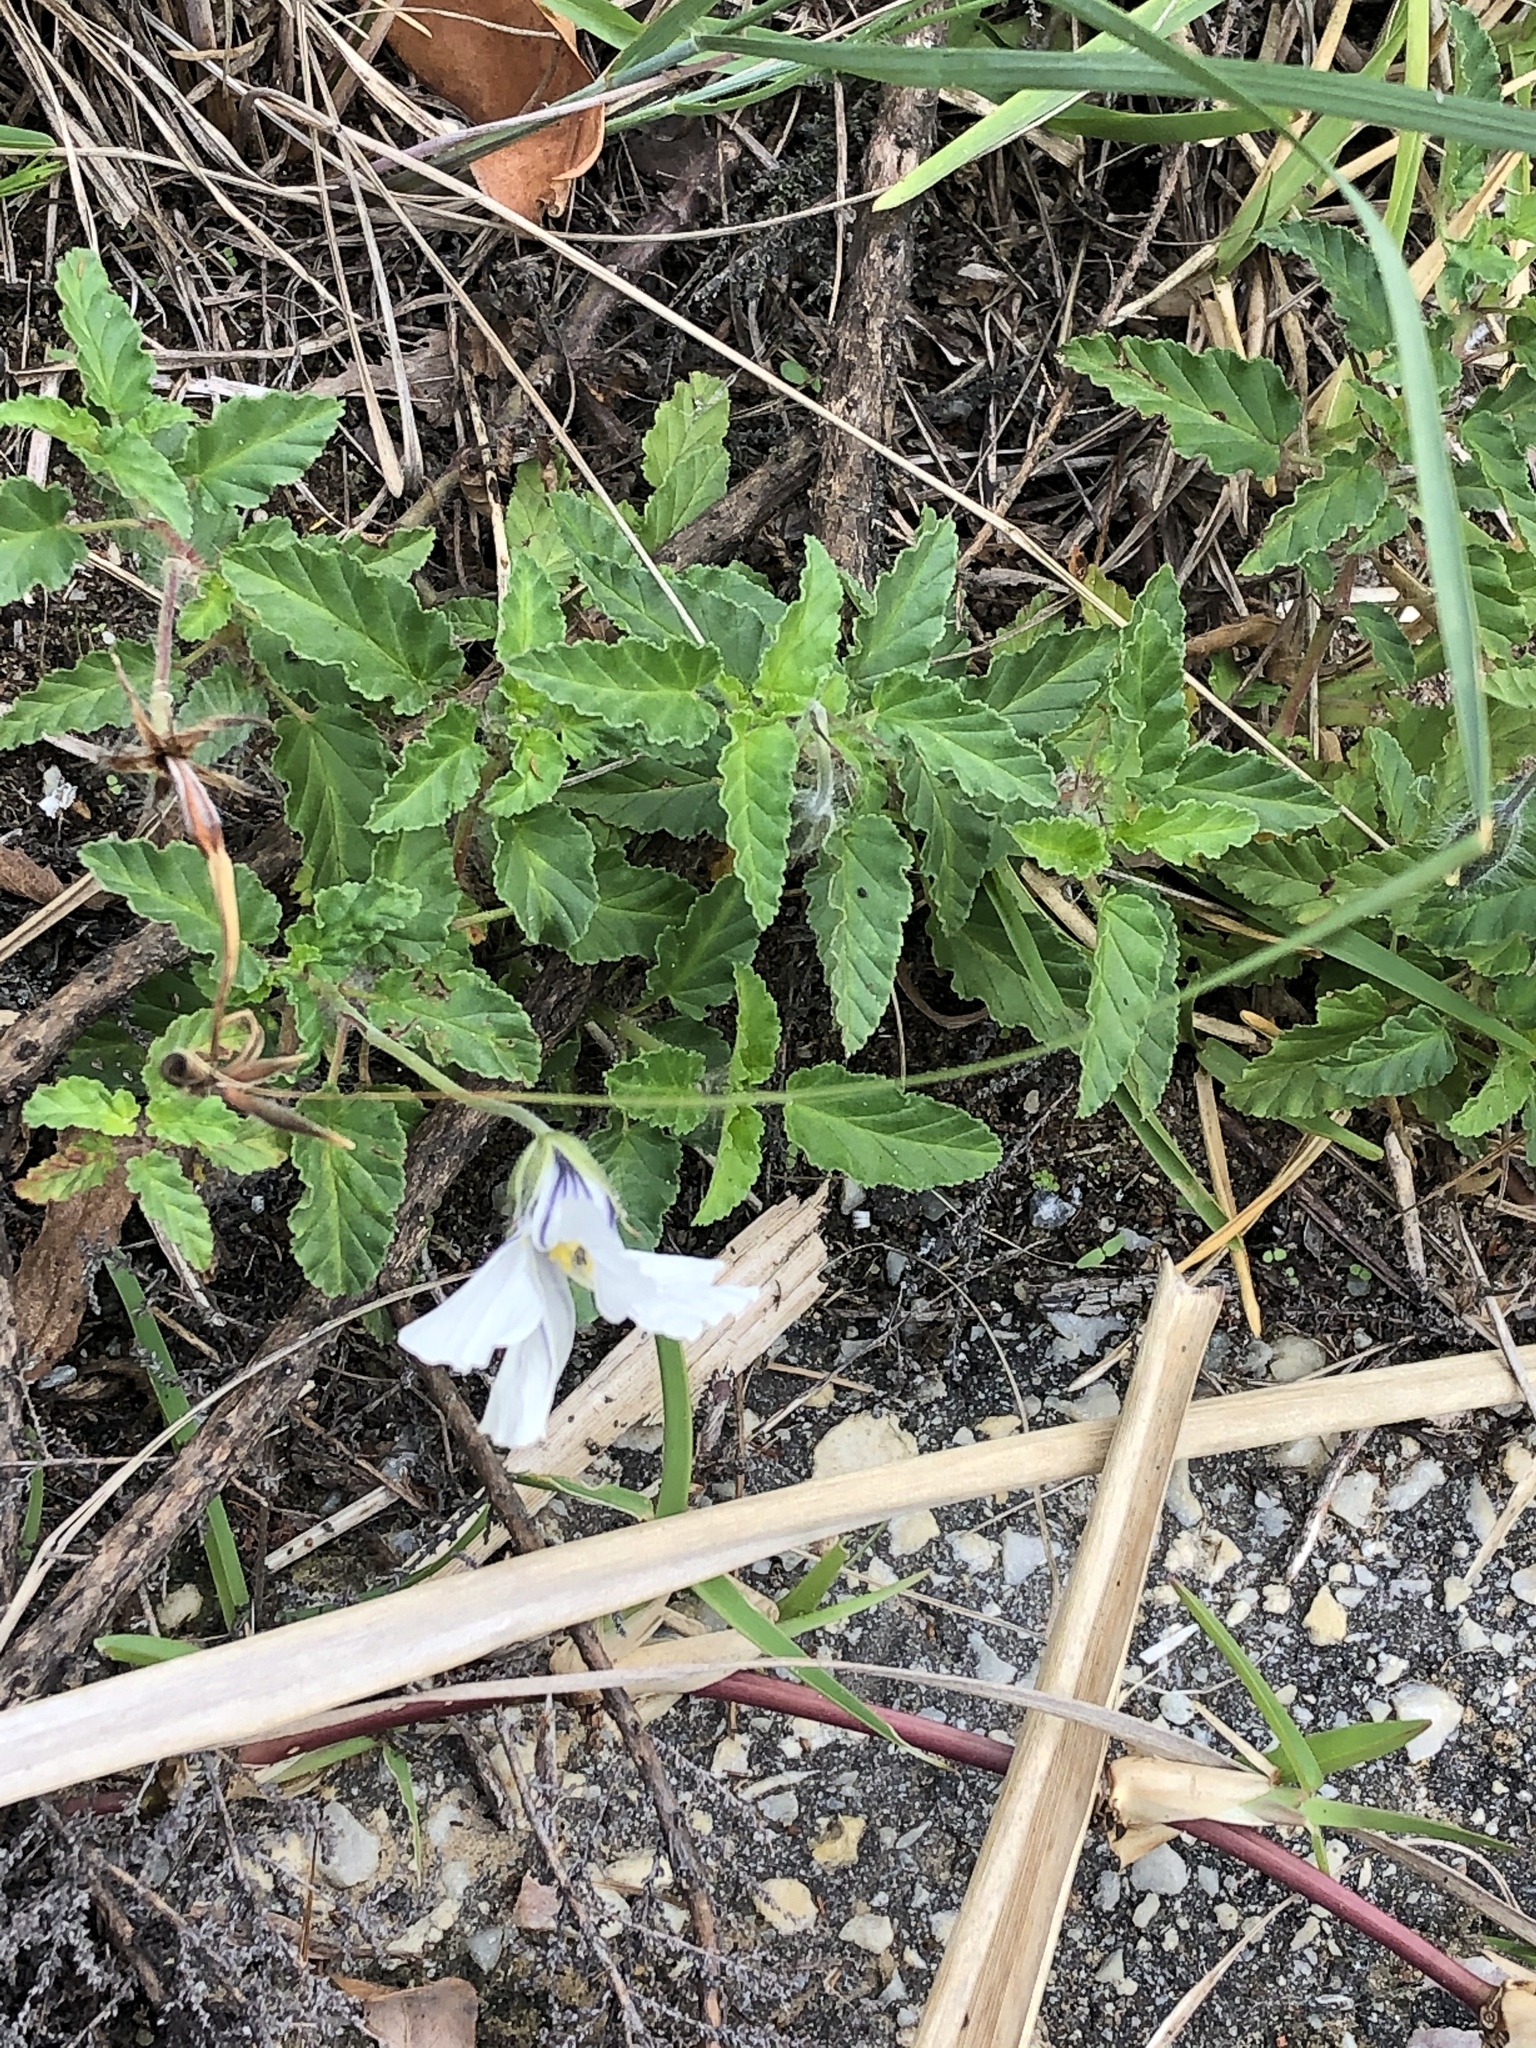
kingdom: Plantae
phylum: Tracheophyta
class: Magnoliopsida
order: Geraniales
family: Geraniaceae
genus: Monsonia
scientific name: Monsonia emarginata
